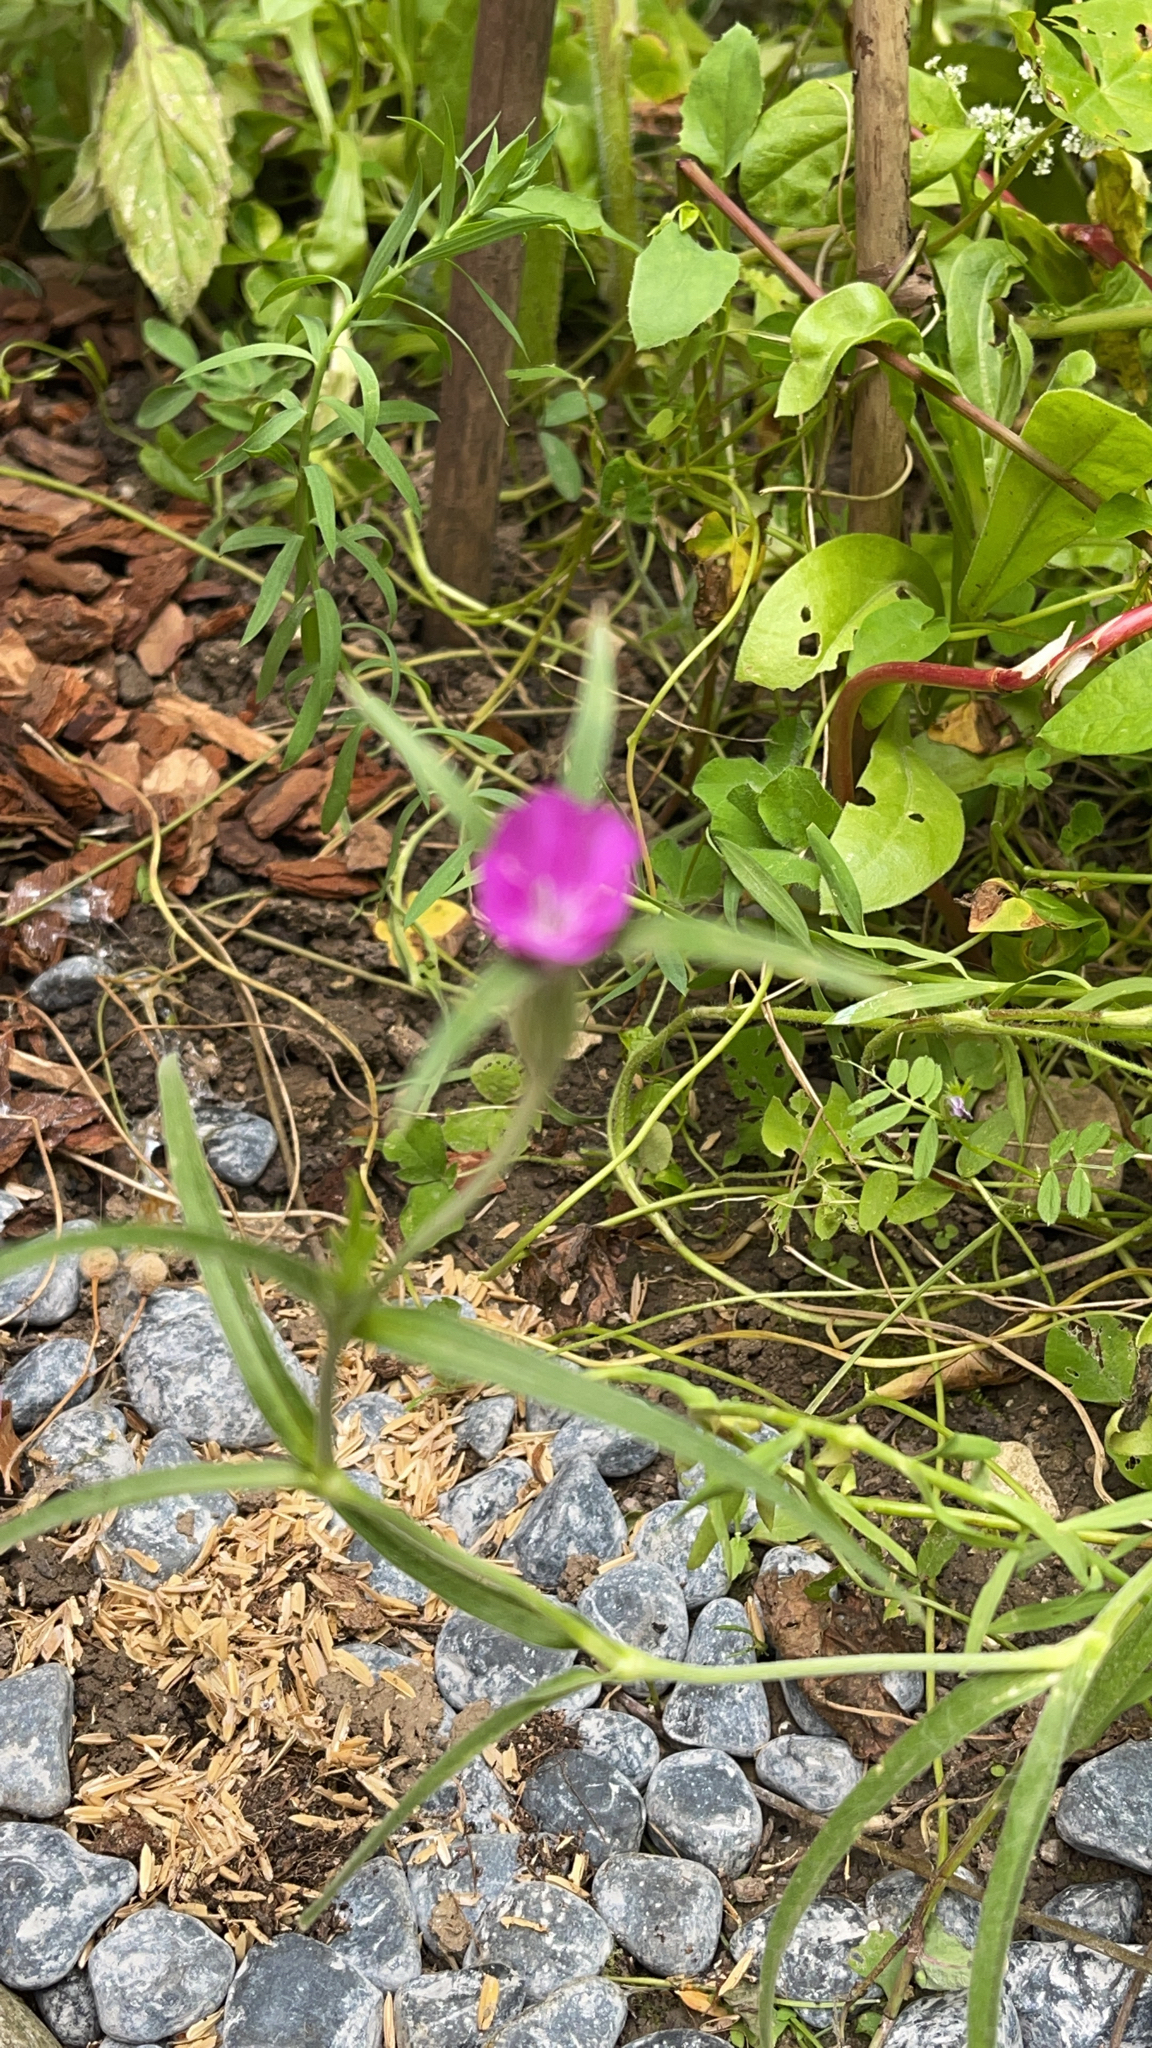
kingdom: Plantae
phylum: Tracheophyta
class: Magnoliopsida
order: Caryophyllales
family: Caryophyllaceae
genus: Agrostemma
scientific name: Agrostemma githago
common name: Common corncockle
